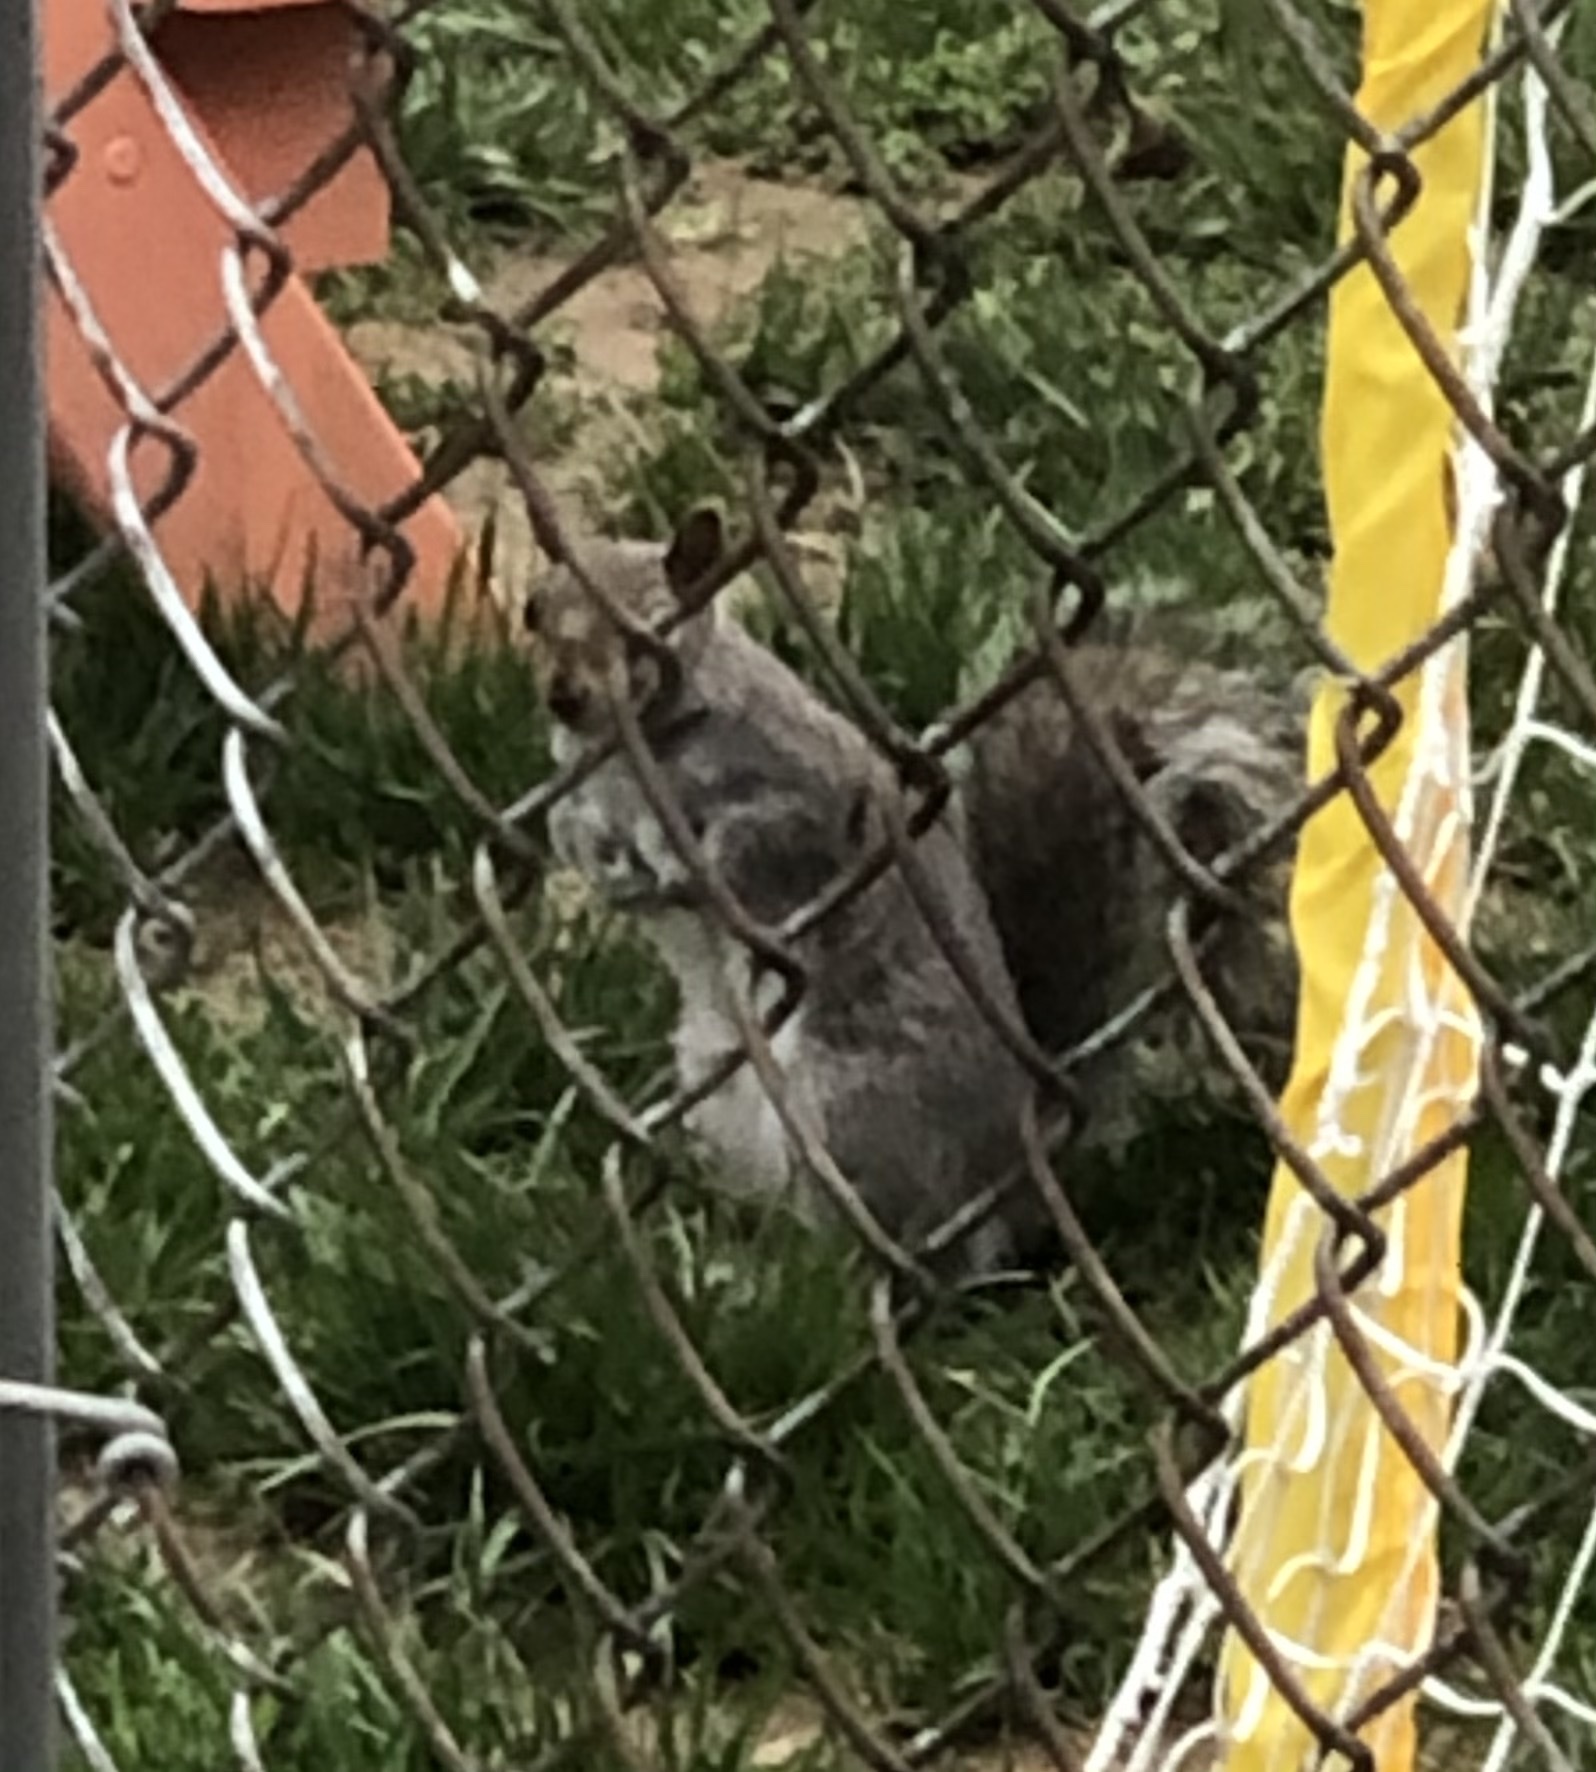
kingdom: Animalia
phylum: Chordata
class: Mammalia
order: Rodentia
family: Sciuridae
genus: Sciurus
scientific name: Sciurus carolinensis
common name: Eastern gray squirrel
